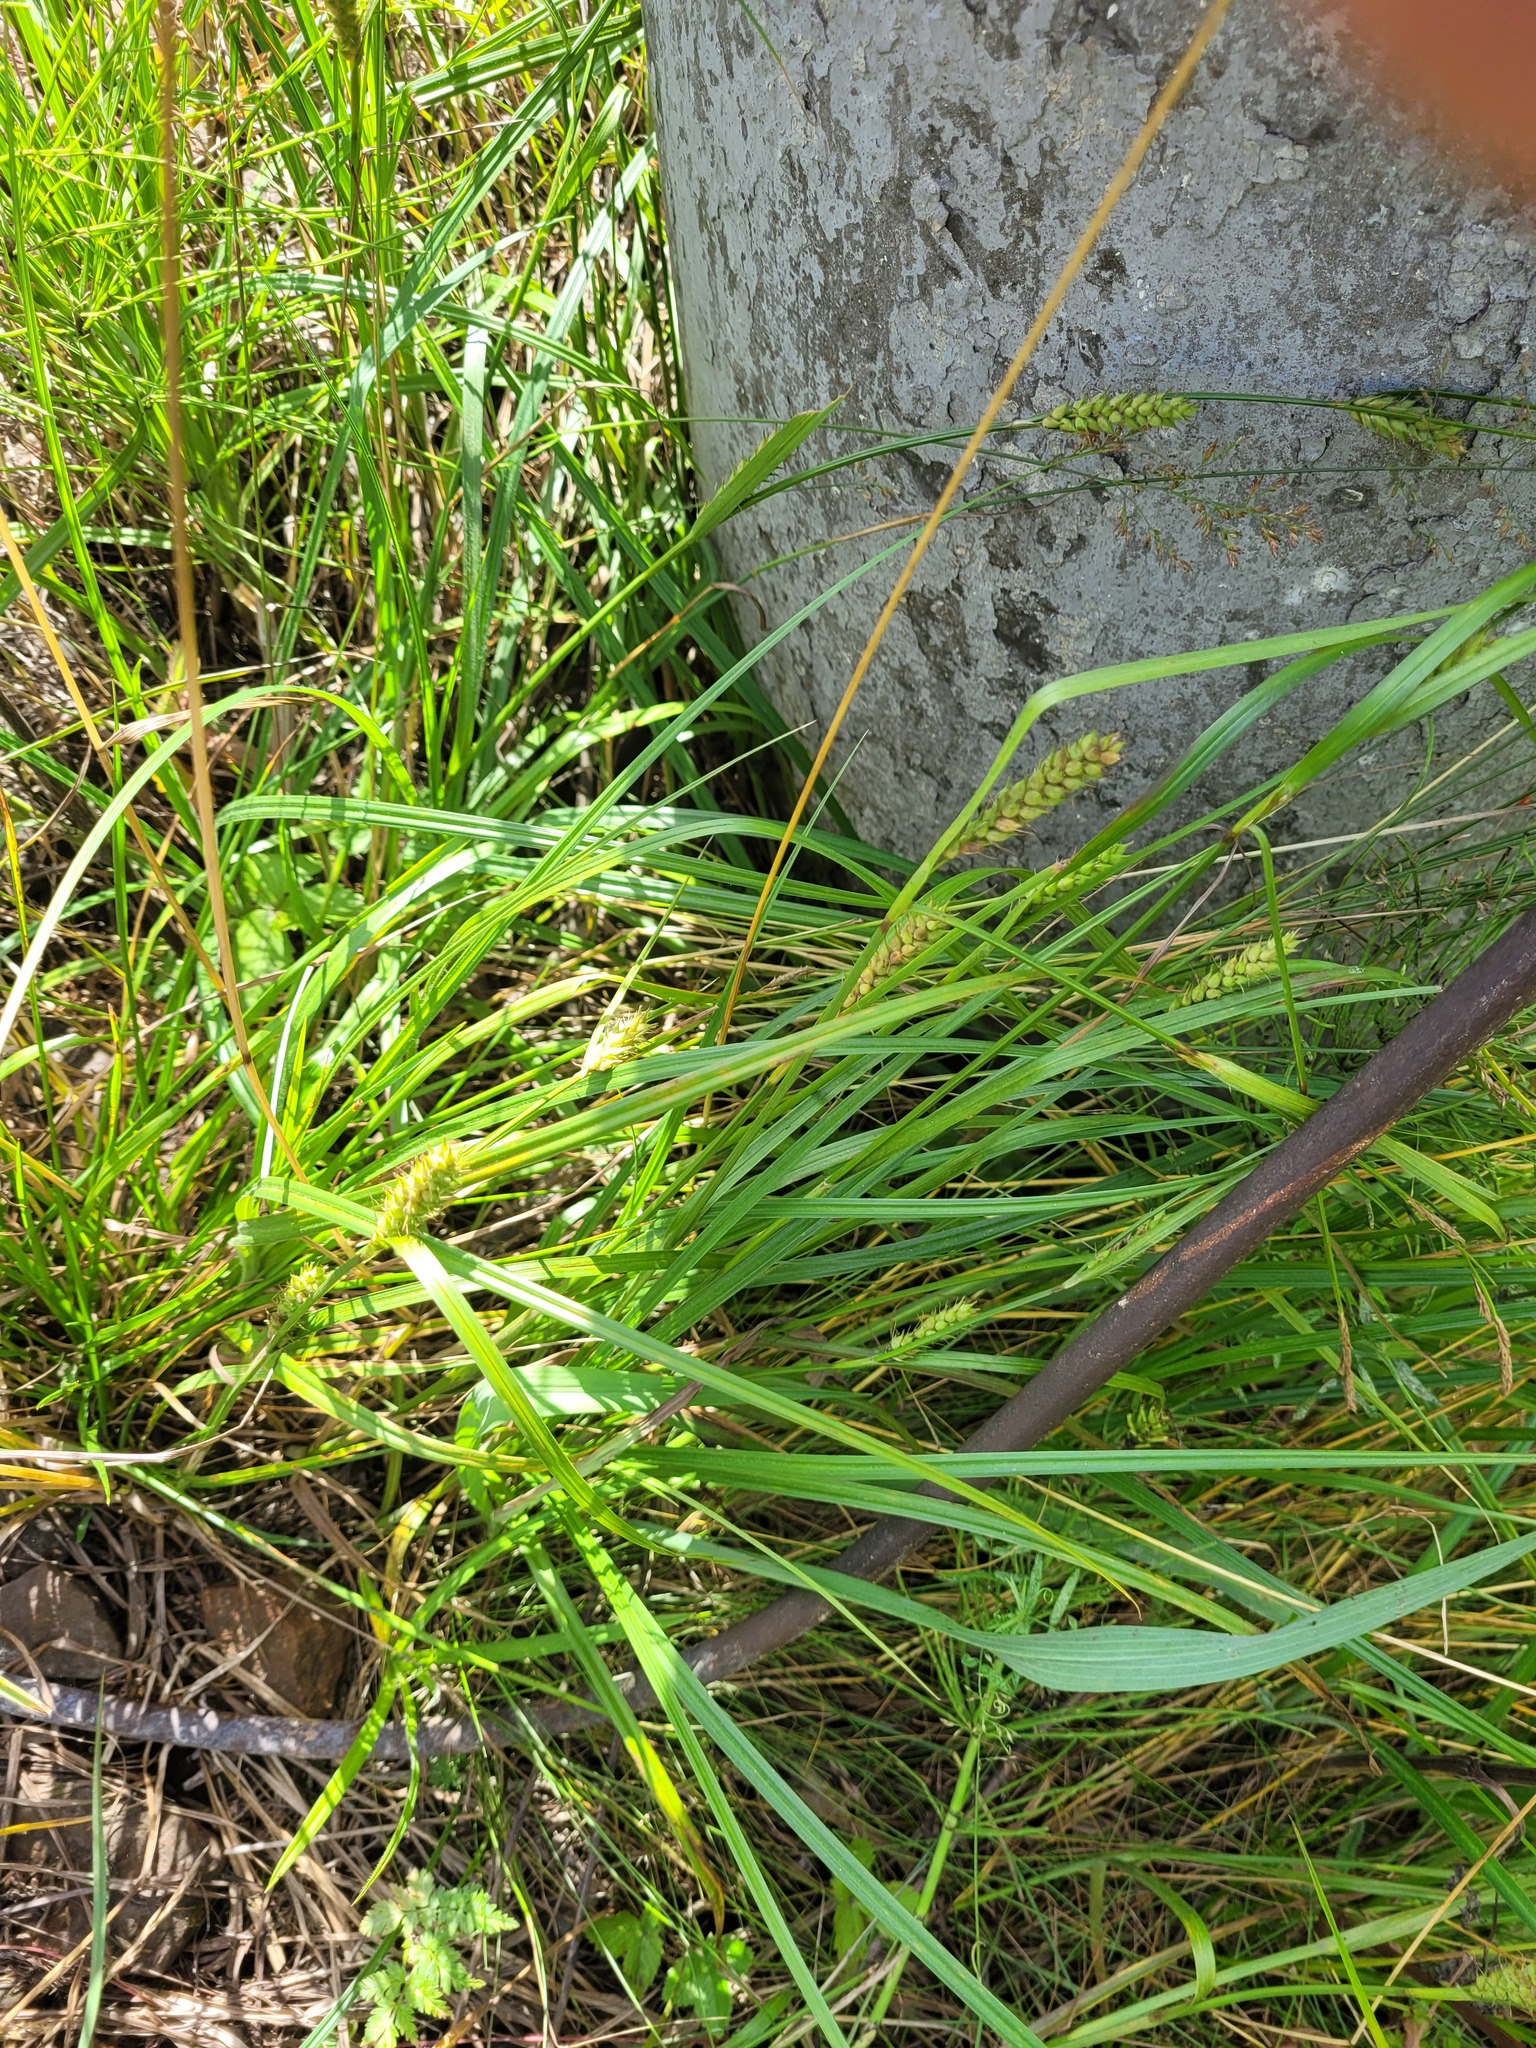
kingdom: Plantae
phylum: Tracheophyta
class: Liliopsida
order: Poales
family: Cyperaceae
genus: Carex
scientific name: Carex hirta
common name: Hairy sedge
